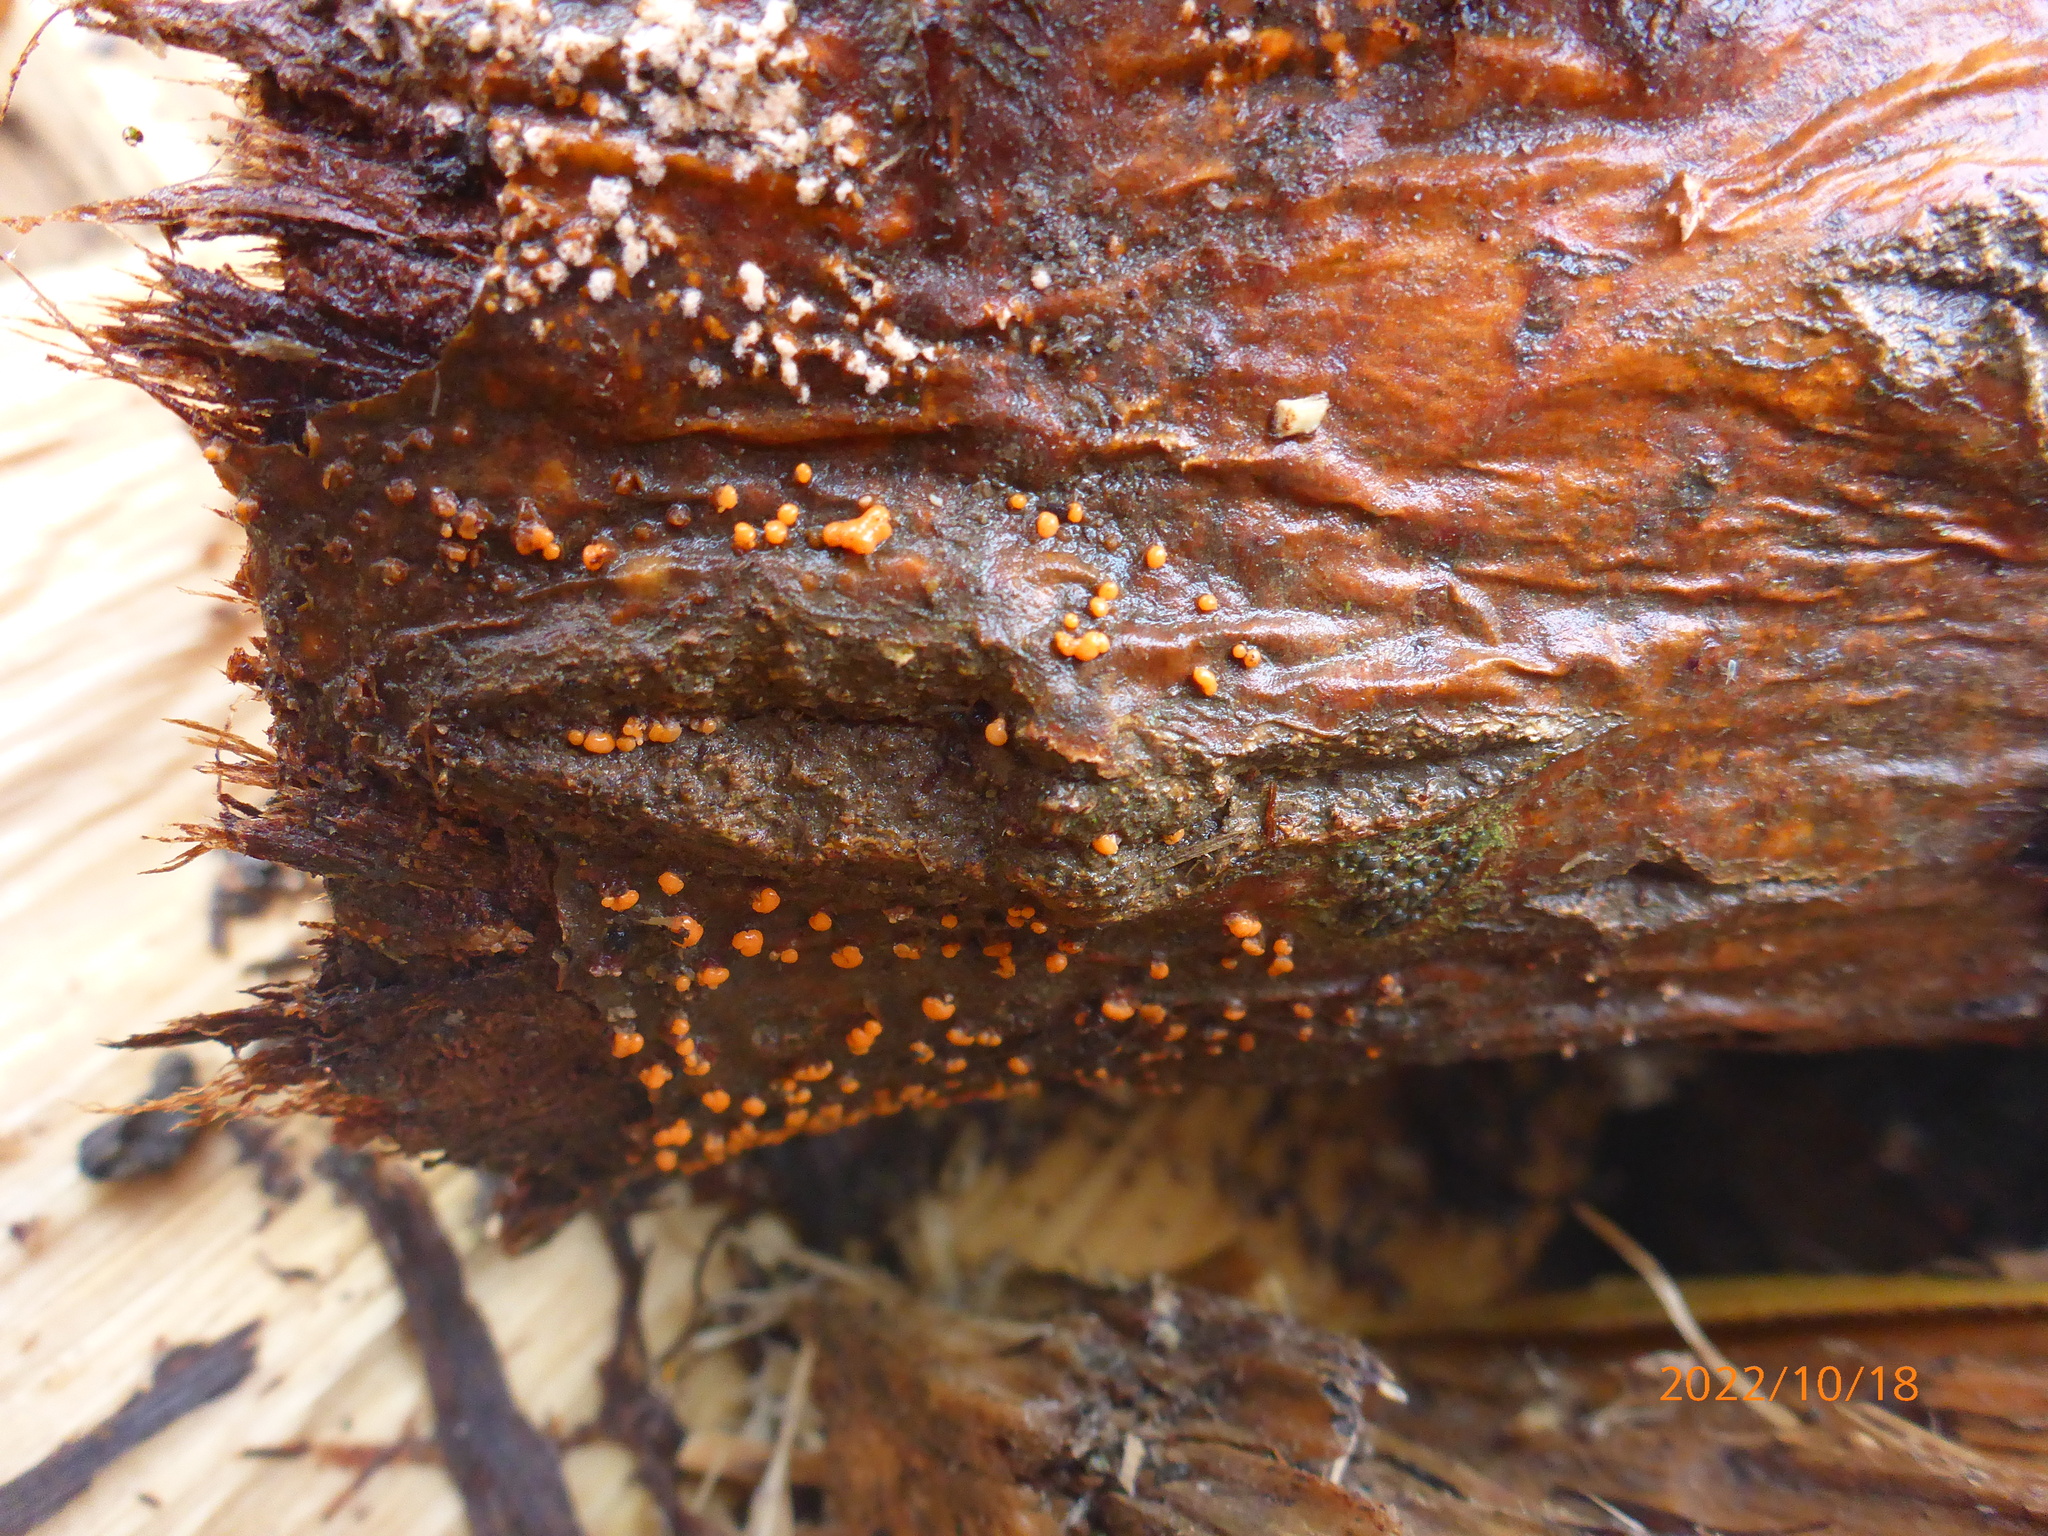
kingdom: Fungi
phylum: Basidiomycota
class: Dacrymycetes
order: Dacrymycetales
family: Dacrymycetaceae
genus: Dacrymyces
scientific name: Dacrymyces stillatus
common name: Common jelly spot
